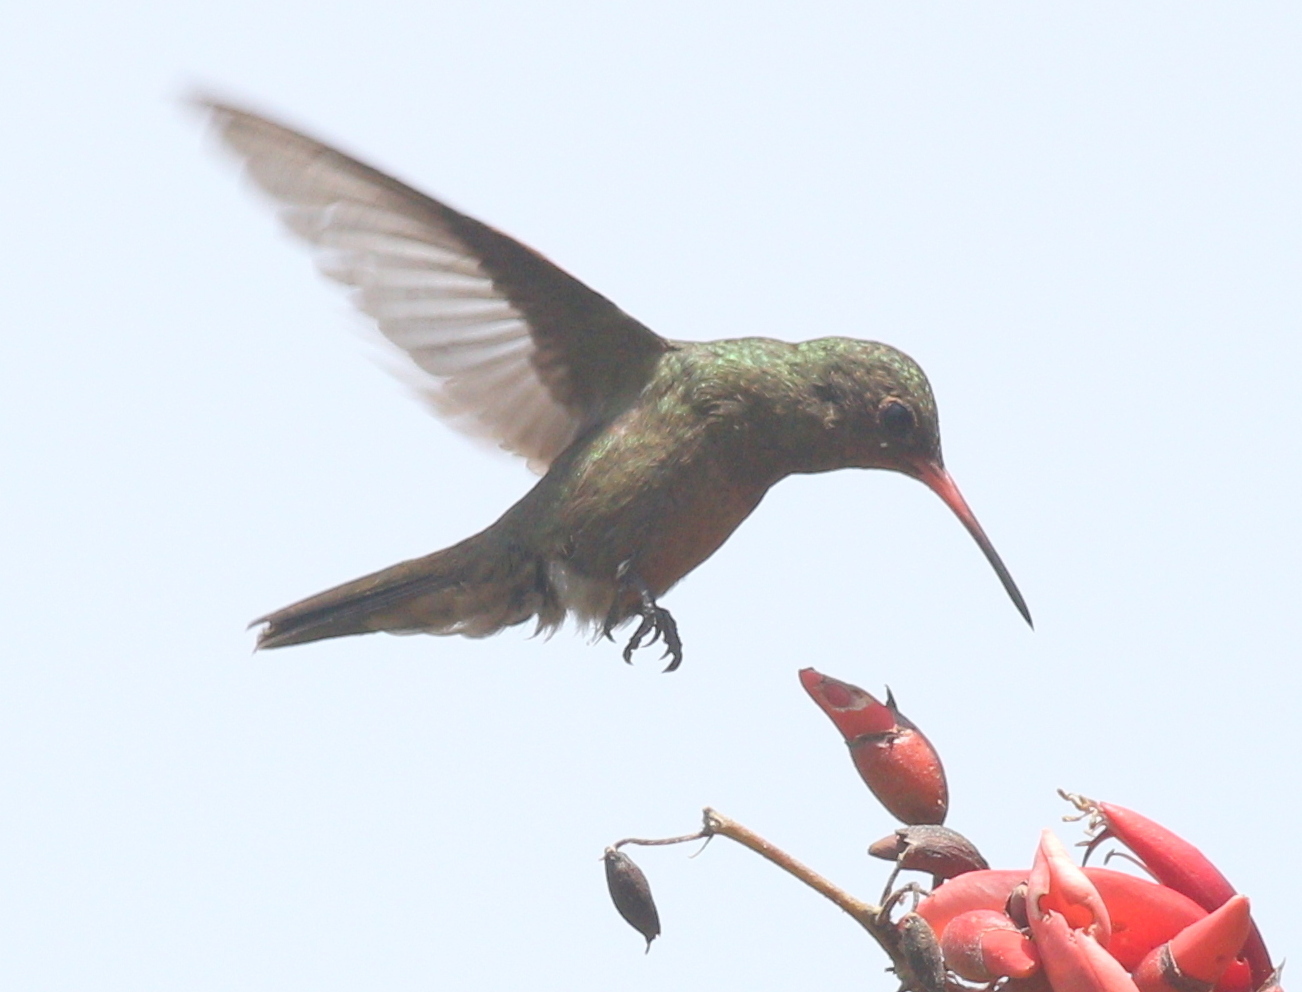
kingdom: Animalia
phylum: Chordata
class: Aves
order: Apodiformes
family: Trochilidae
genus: Chlorostilbon
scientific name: Chlorostilbon lucidus
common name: Glittering-bellied emerald
